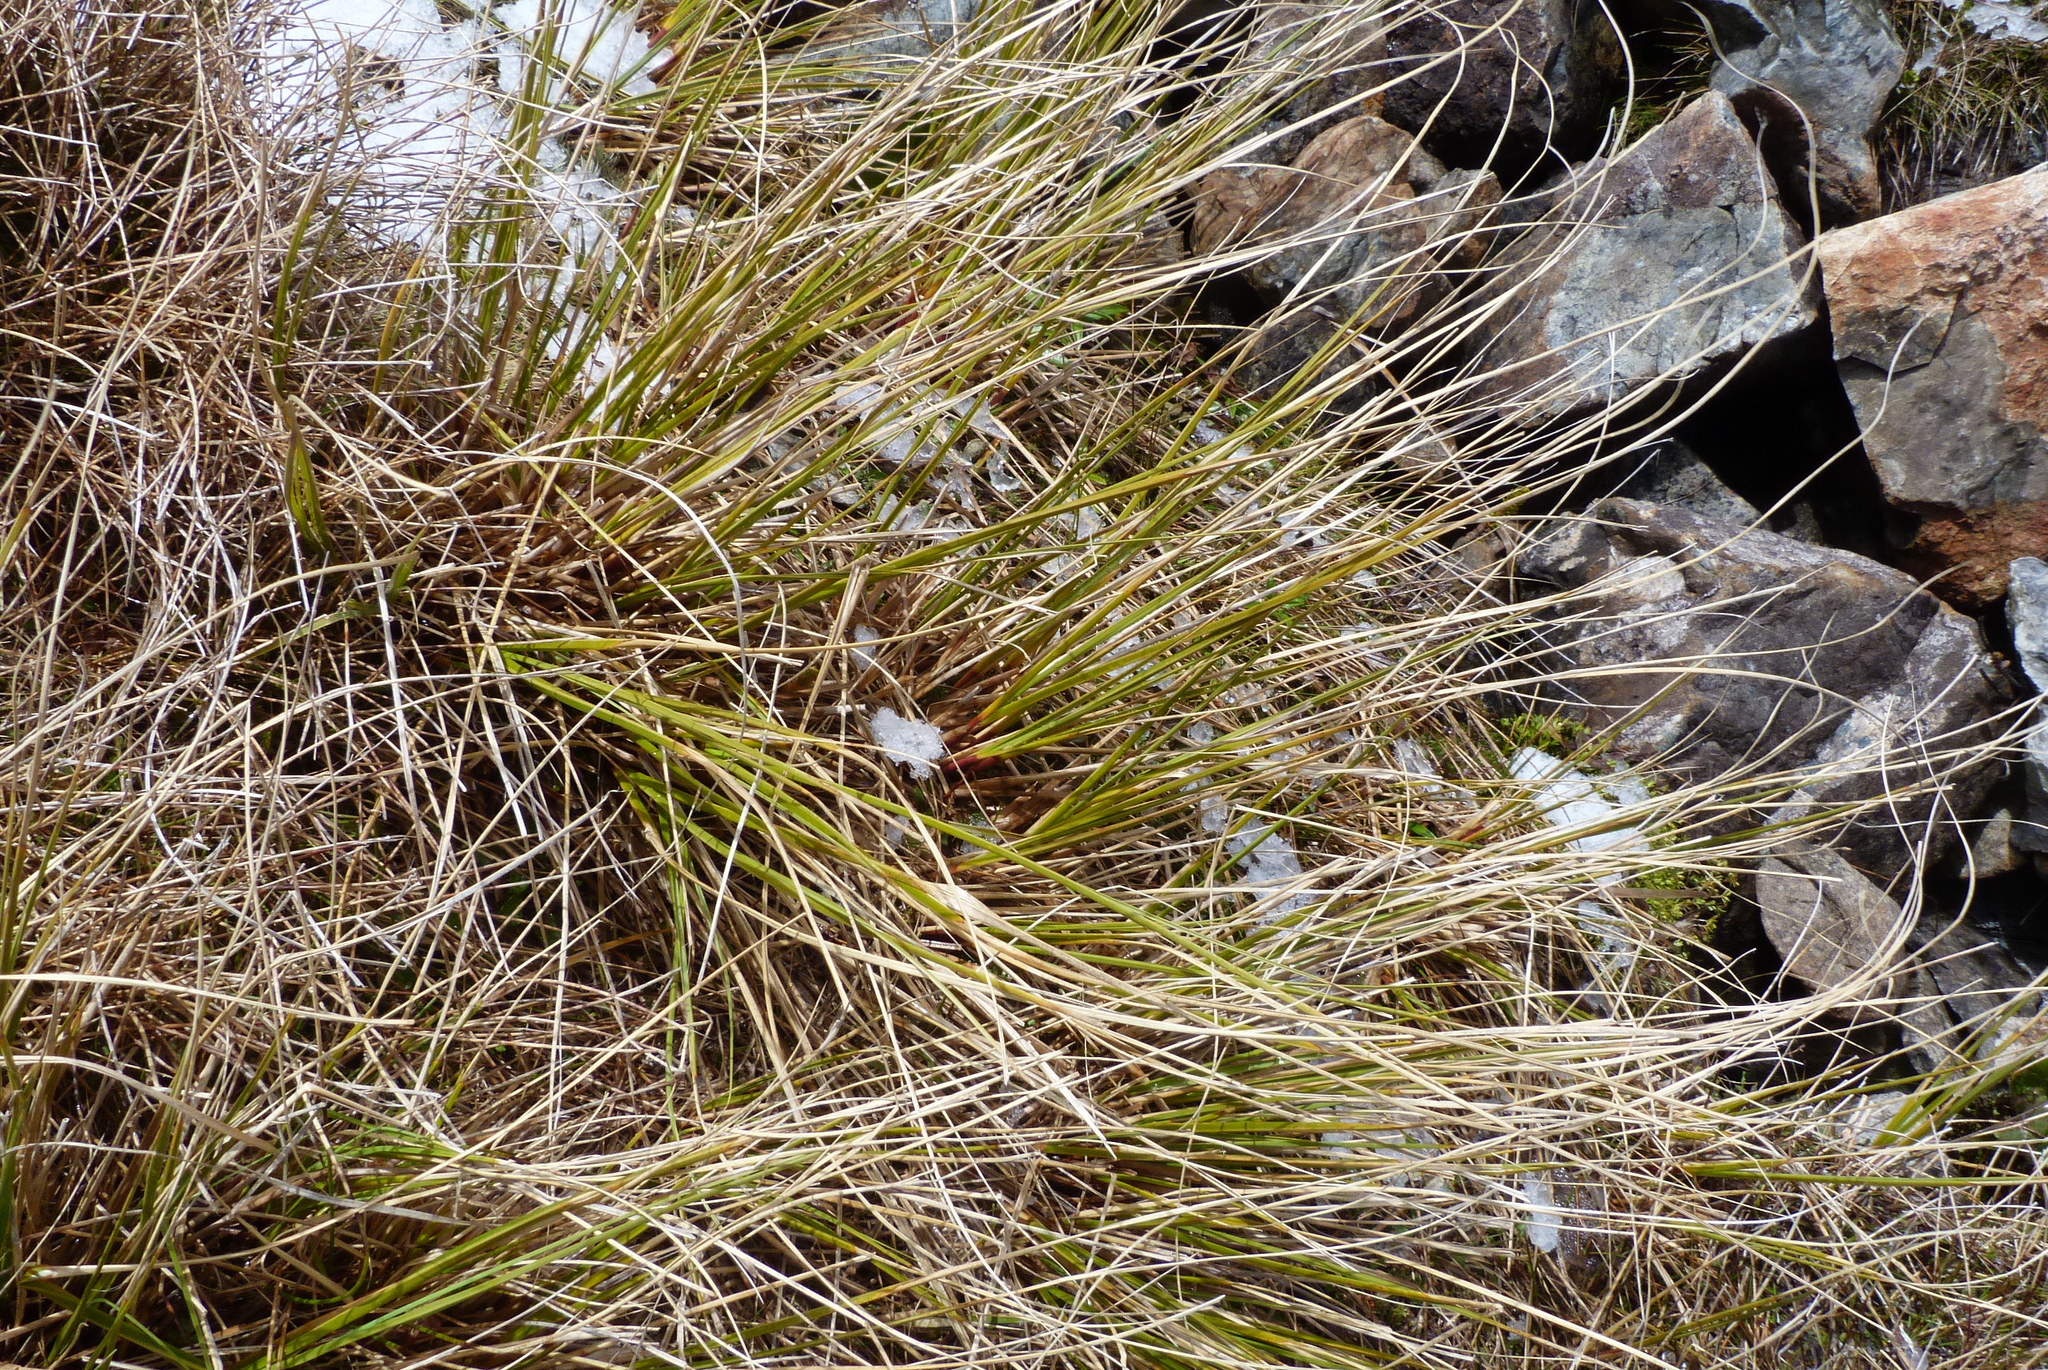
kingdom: Plantae
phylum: Tracheophyta
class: Liliopsida
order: Poales
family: Poaceae
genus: Chionochloa
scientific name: Chionochloa pallens
